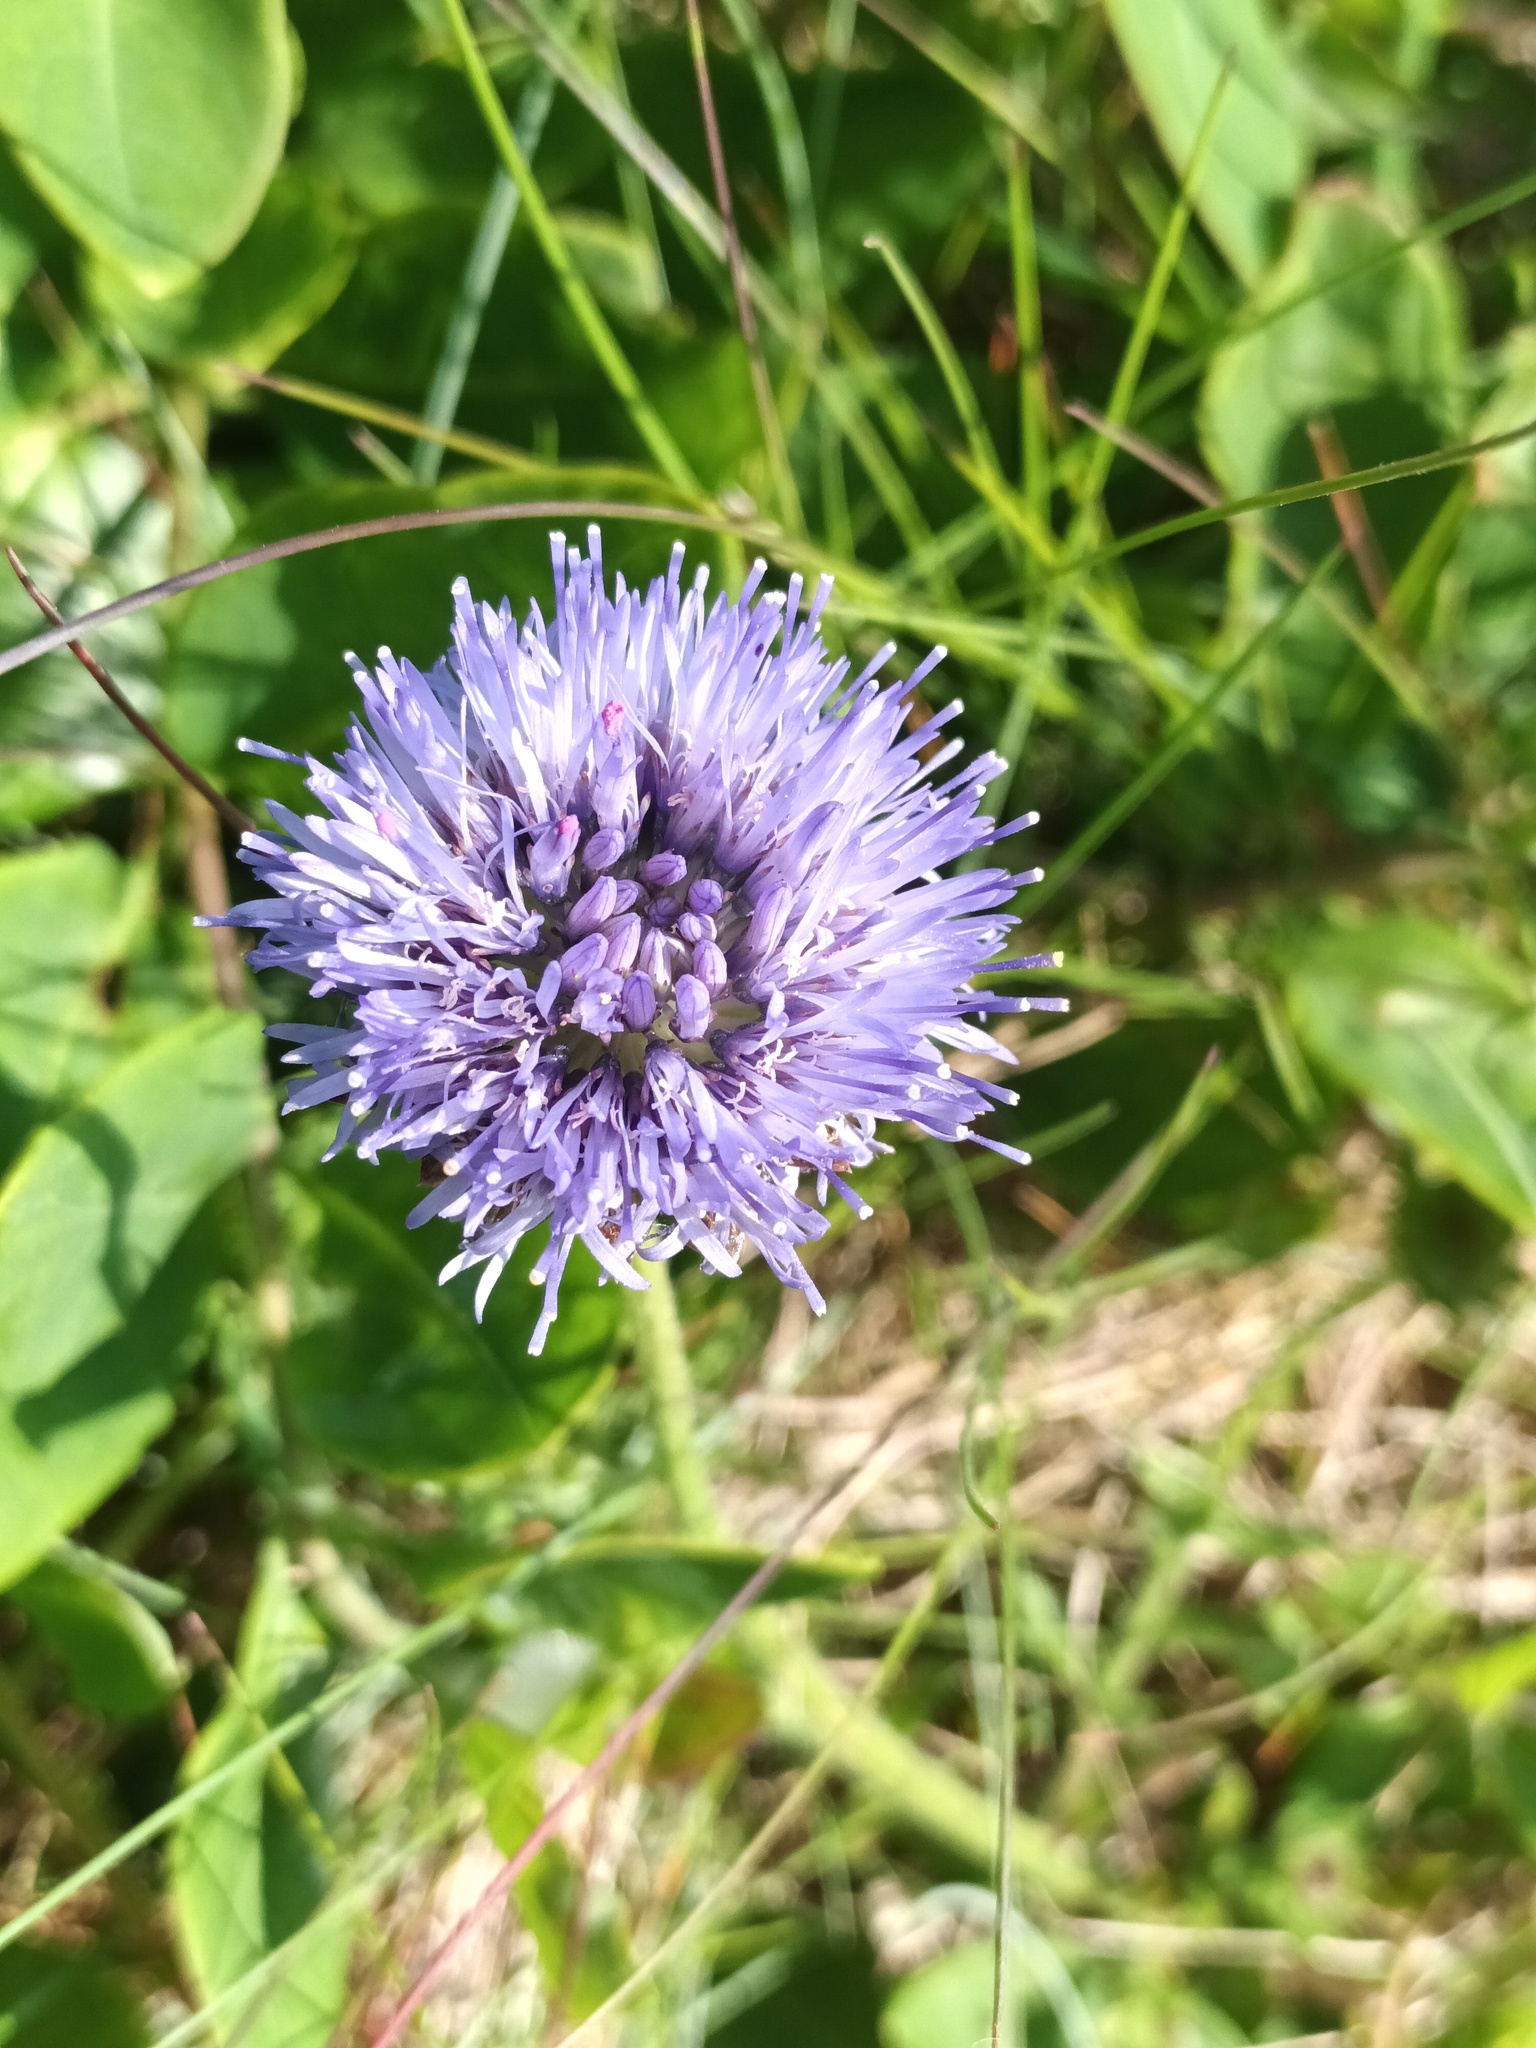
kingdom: Plantae
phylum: Tracheophyta
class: Magnoliopsida
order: Asterales
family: Campanulaceae
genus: Jasione
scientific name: Jasione montana
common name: Sheep's-bit
